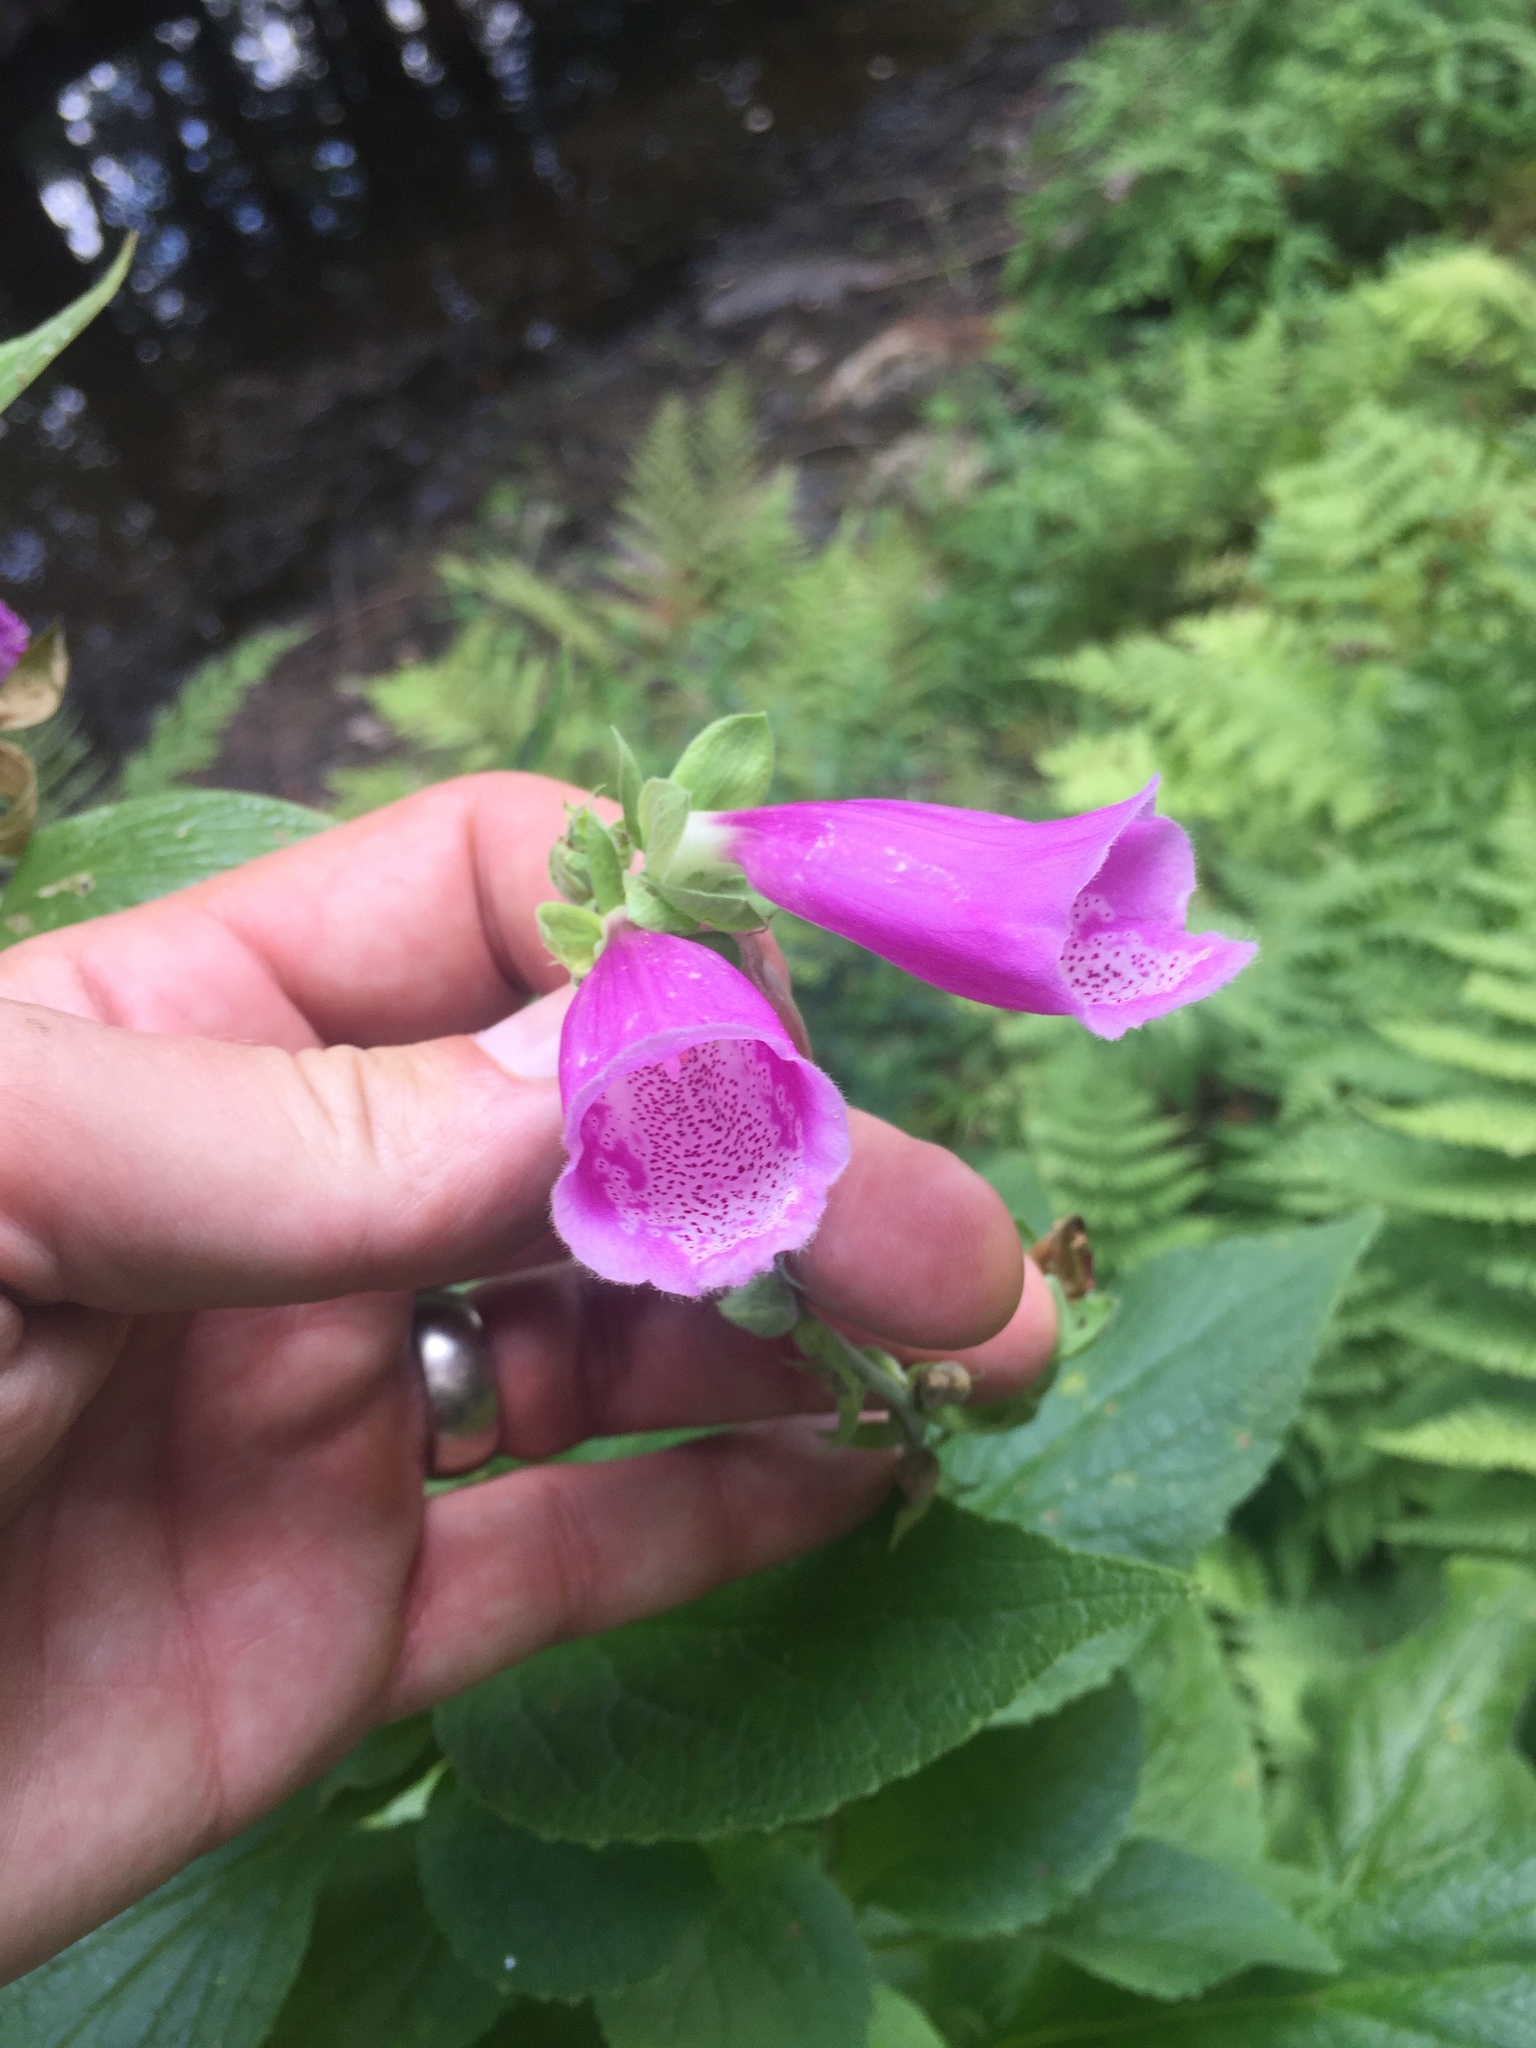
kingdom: Plantae
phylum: Tracheophyta
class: Magnoliopsida
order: Lamiales
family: Plantaginaceae
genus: Digitalis
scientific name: Digitalis purpurea
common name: Foxglove
